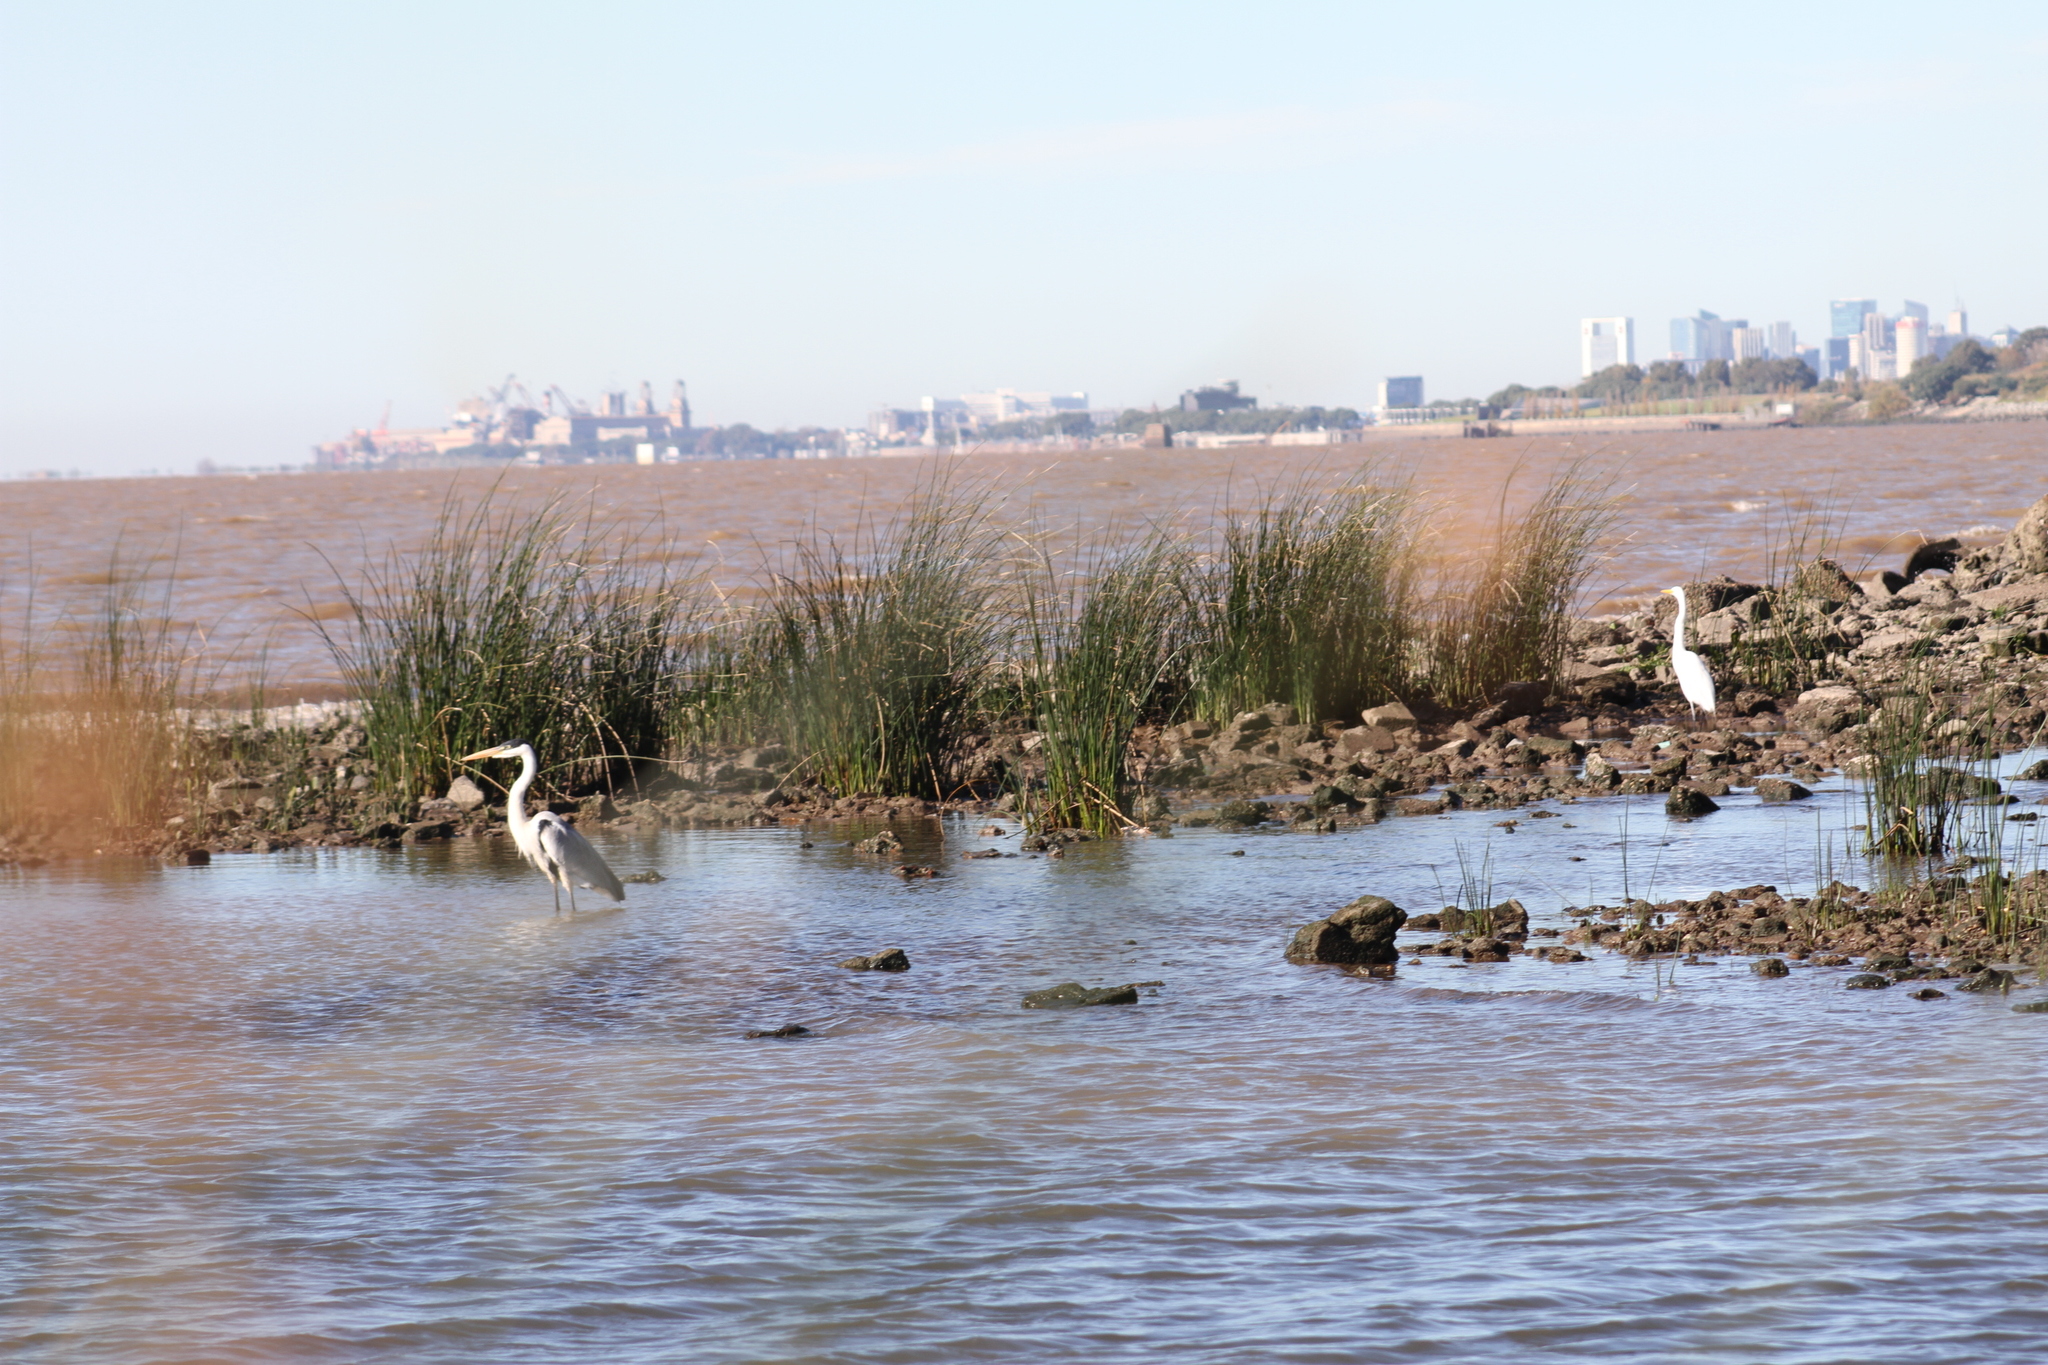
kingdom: Animalia
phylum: Chordata
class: Aves
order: Pelecaniformes
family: Ardeidae
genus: Ardea
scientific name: Ardea cocoi
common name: Cocoi heron
